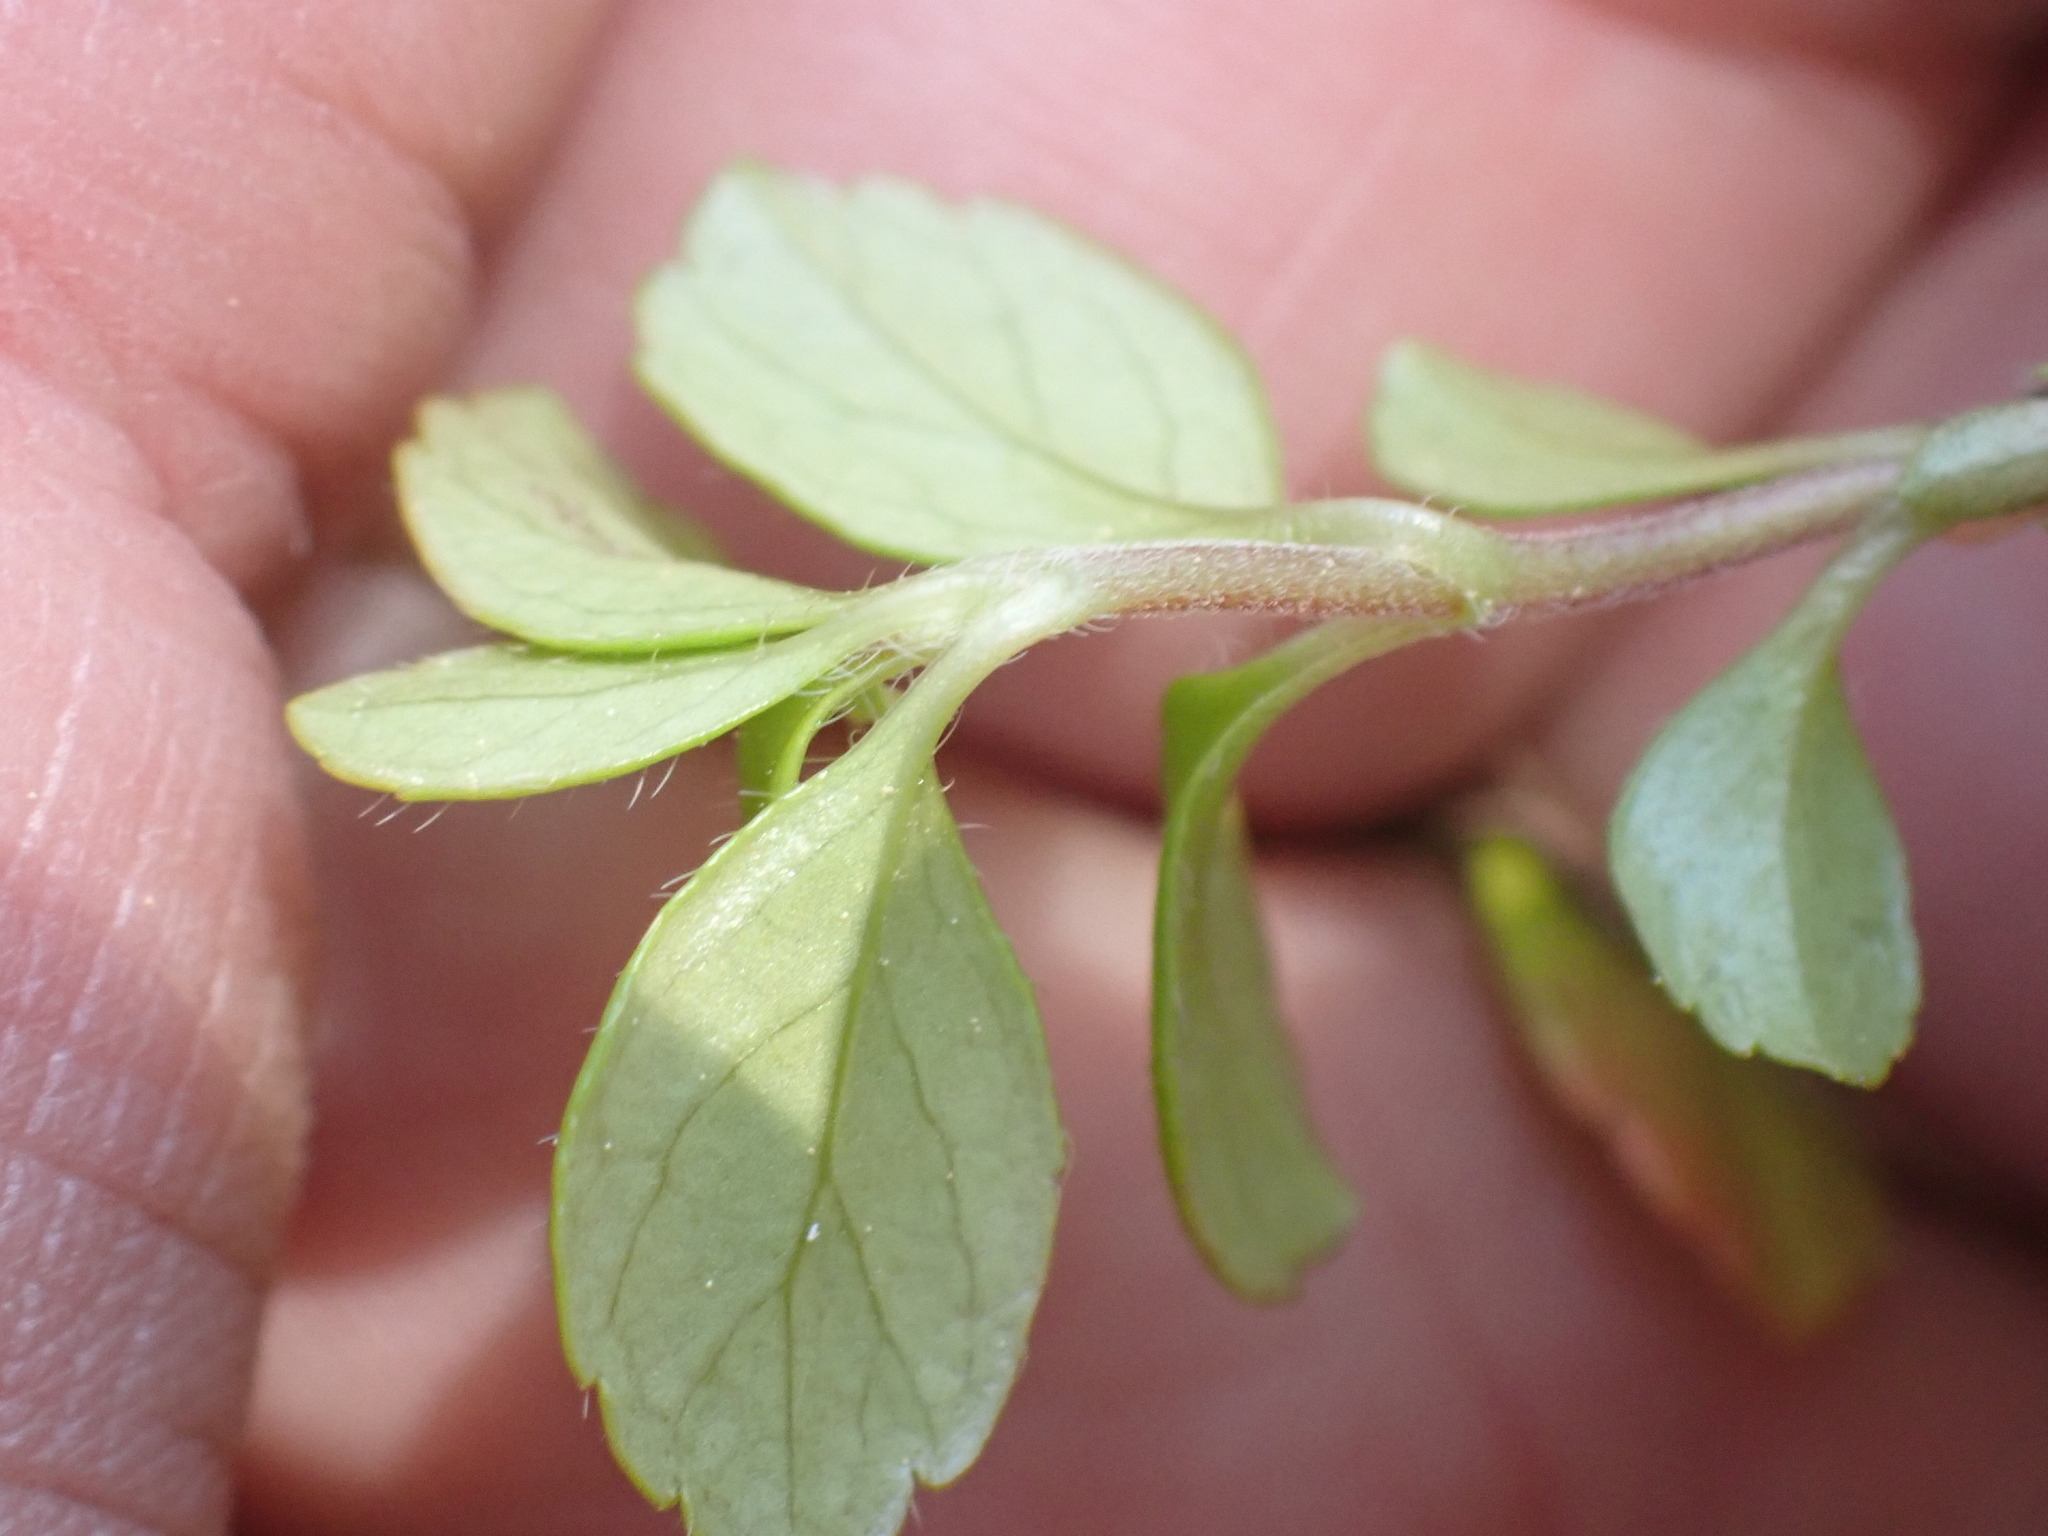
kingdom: Plantae
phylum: Tracheophyta
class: Magnoliopsida
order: Dipsacales
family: Caprifoliaceae
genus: Linnaea
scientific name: Linnaea borealis
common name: Twinflower
